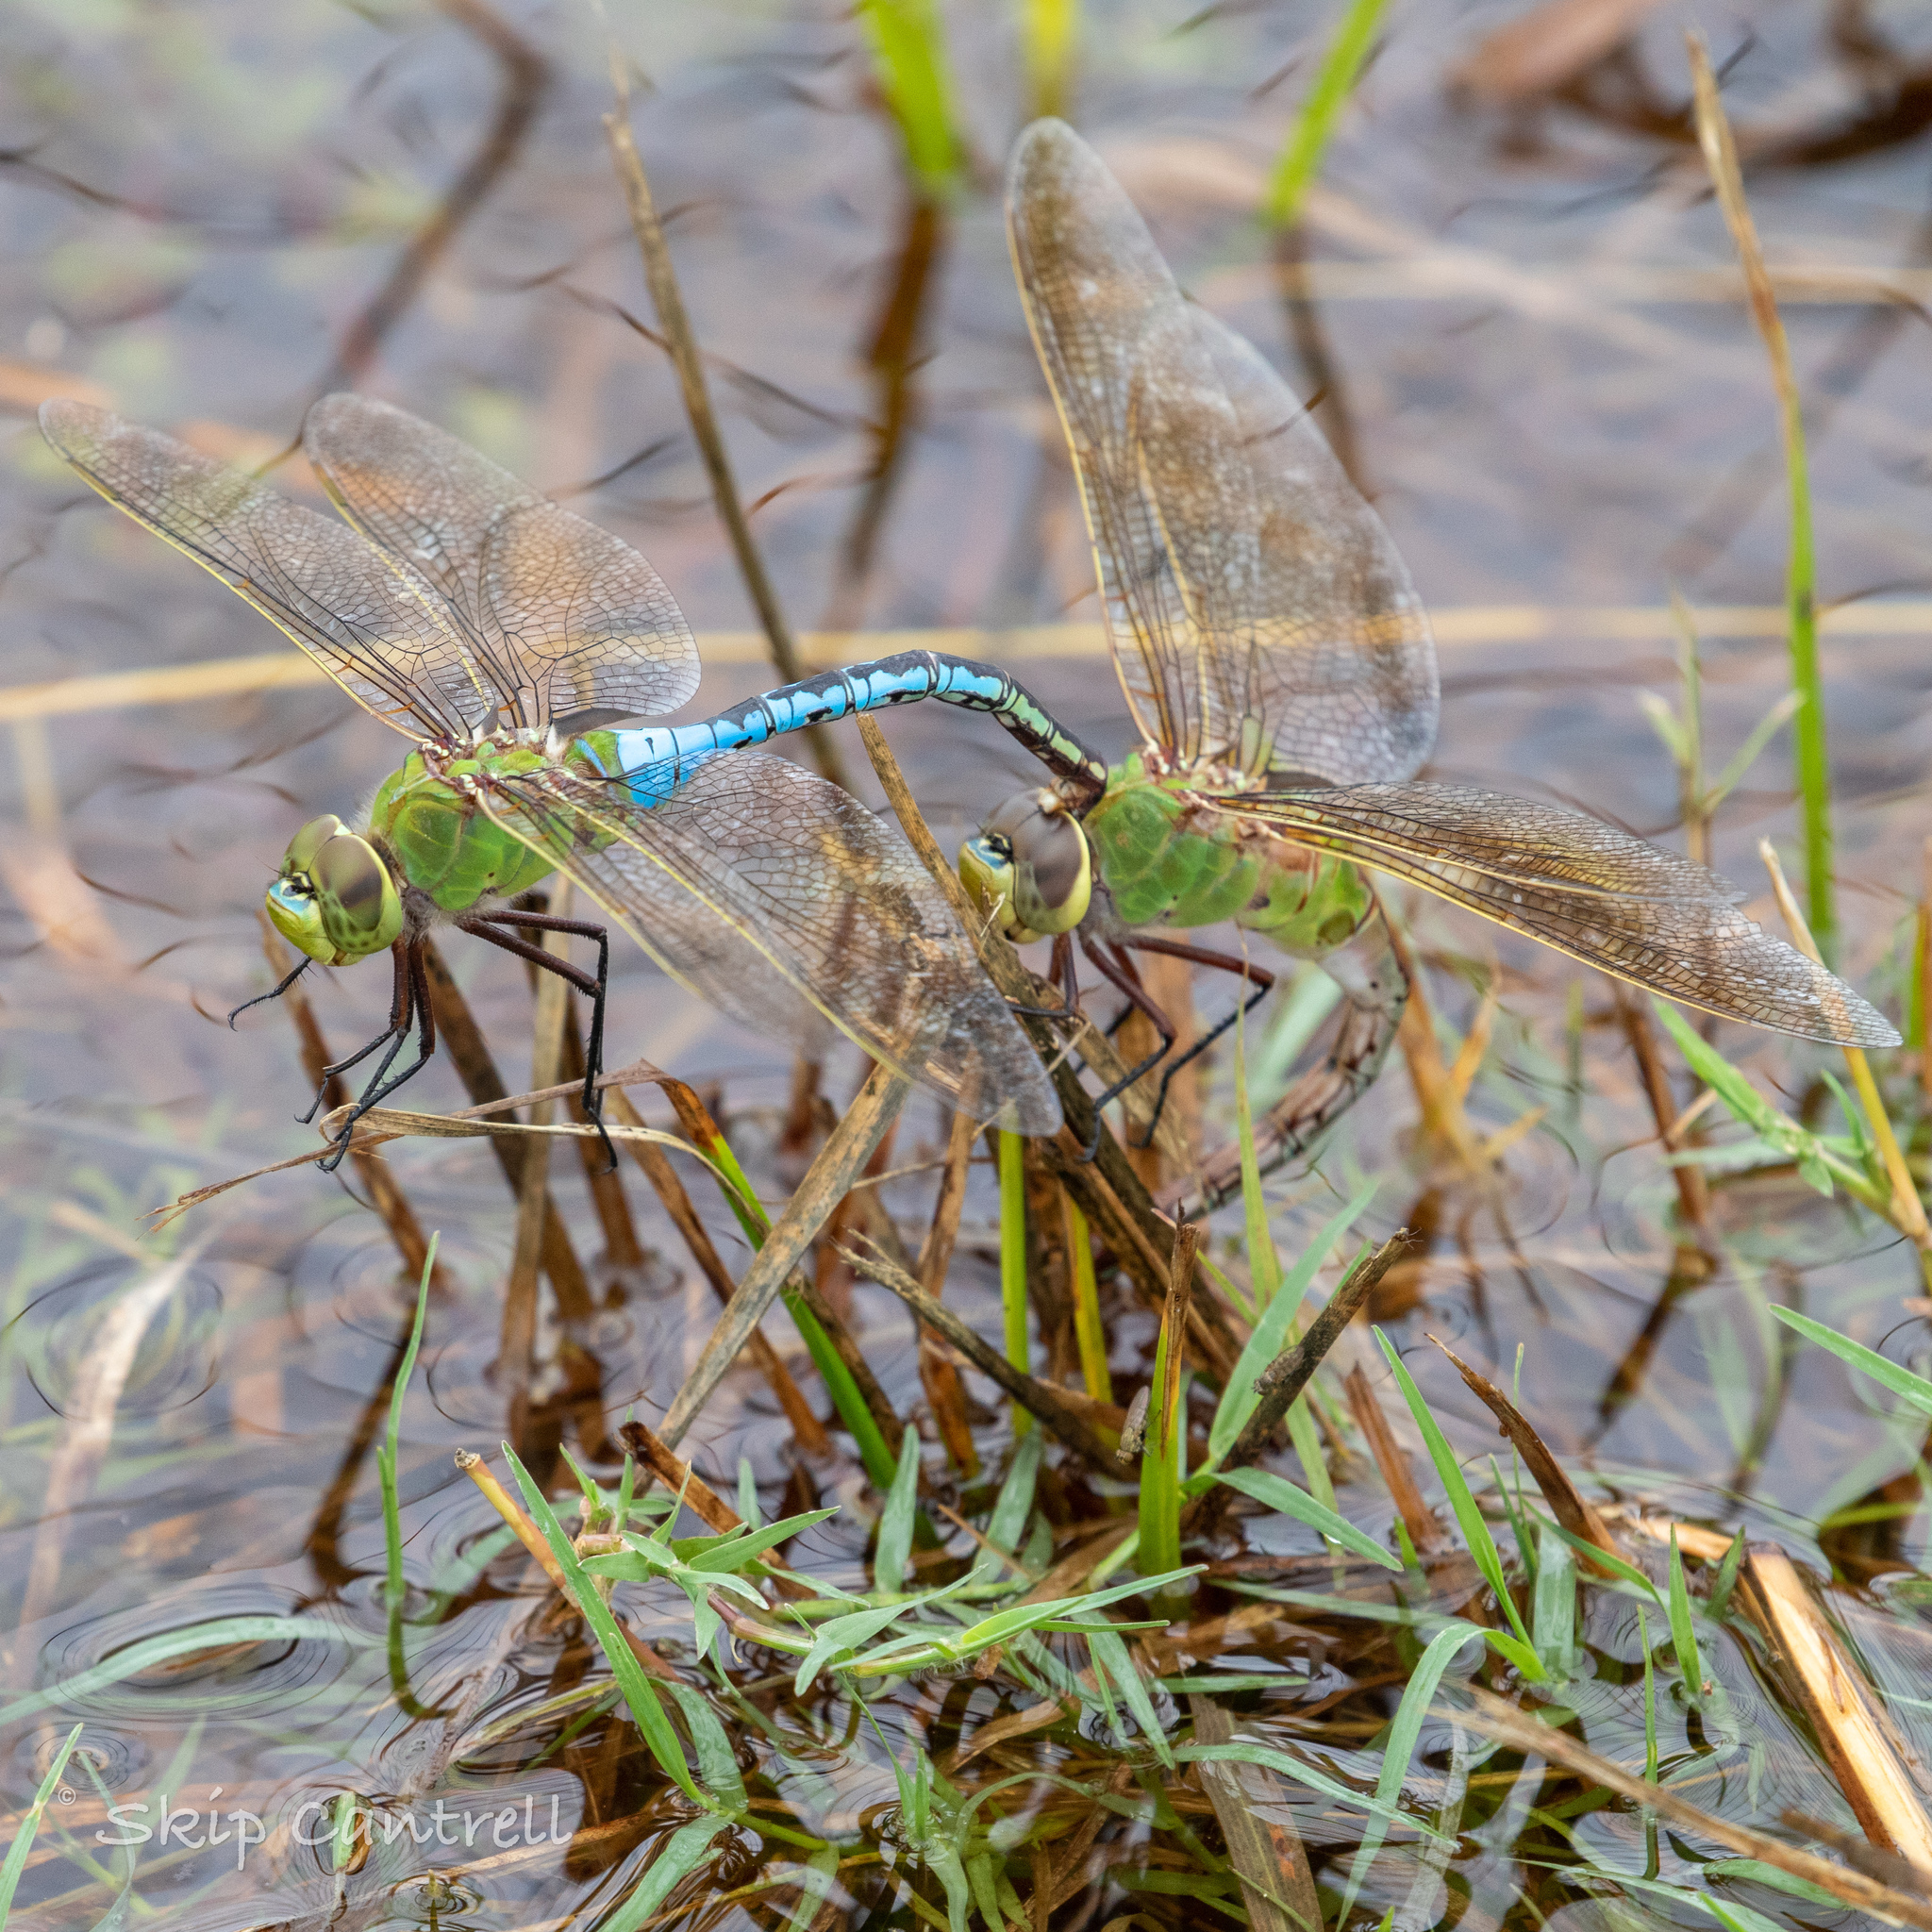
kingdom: Animalia
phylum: Arthropoda
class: Insecta
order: Odonata
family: Aeshnidae
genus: Anax
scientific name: Anax junius
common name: Common green darner
